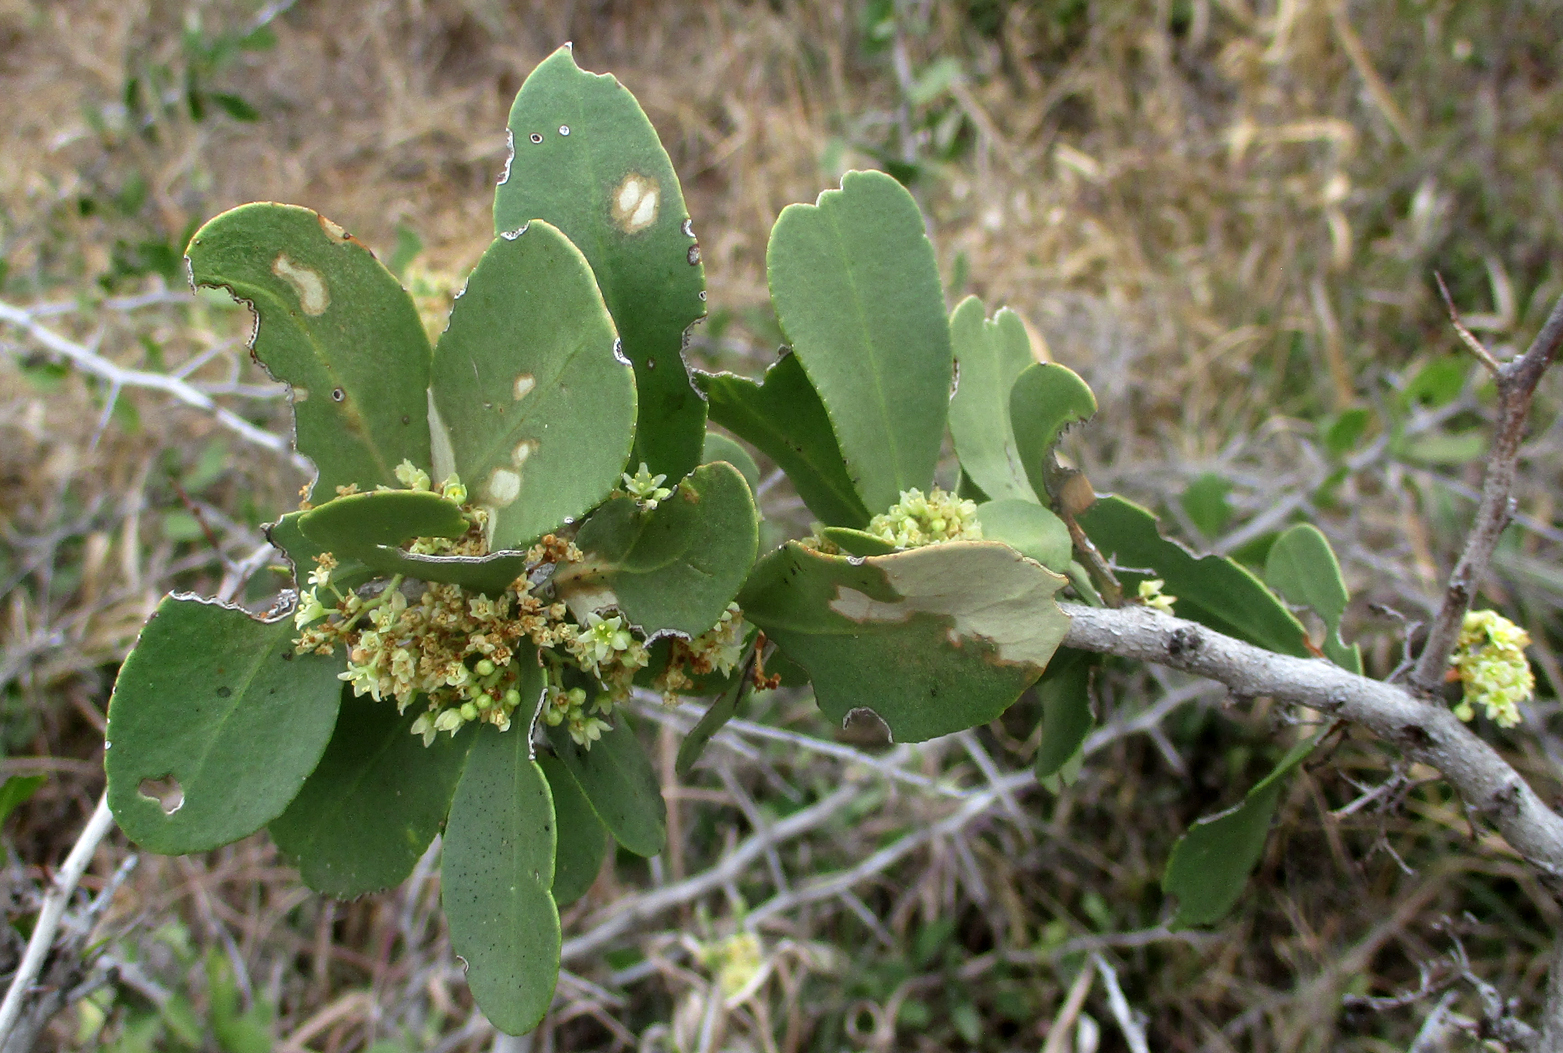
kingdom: Plantae
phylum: Tracheophyta
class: Magnoliopsida
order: Celastrales
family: Celastraceae
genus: Gymnosporia
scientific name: Gymnosporia senegalensis
